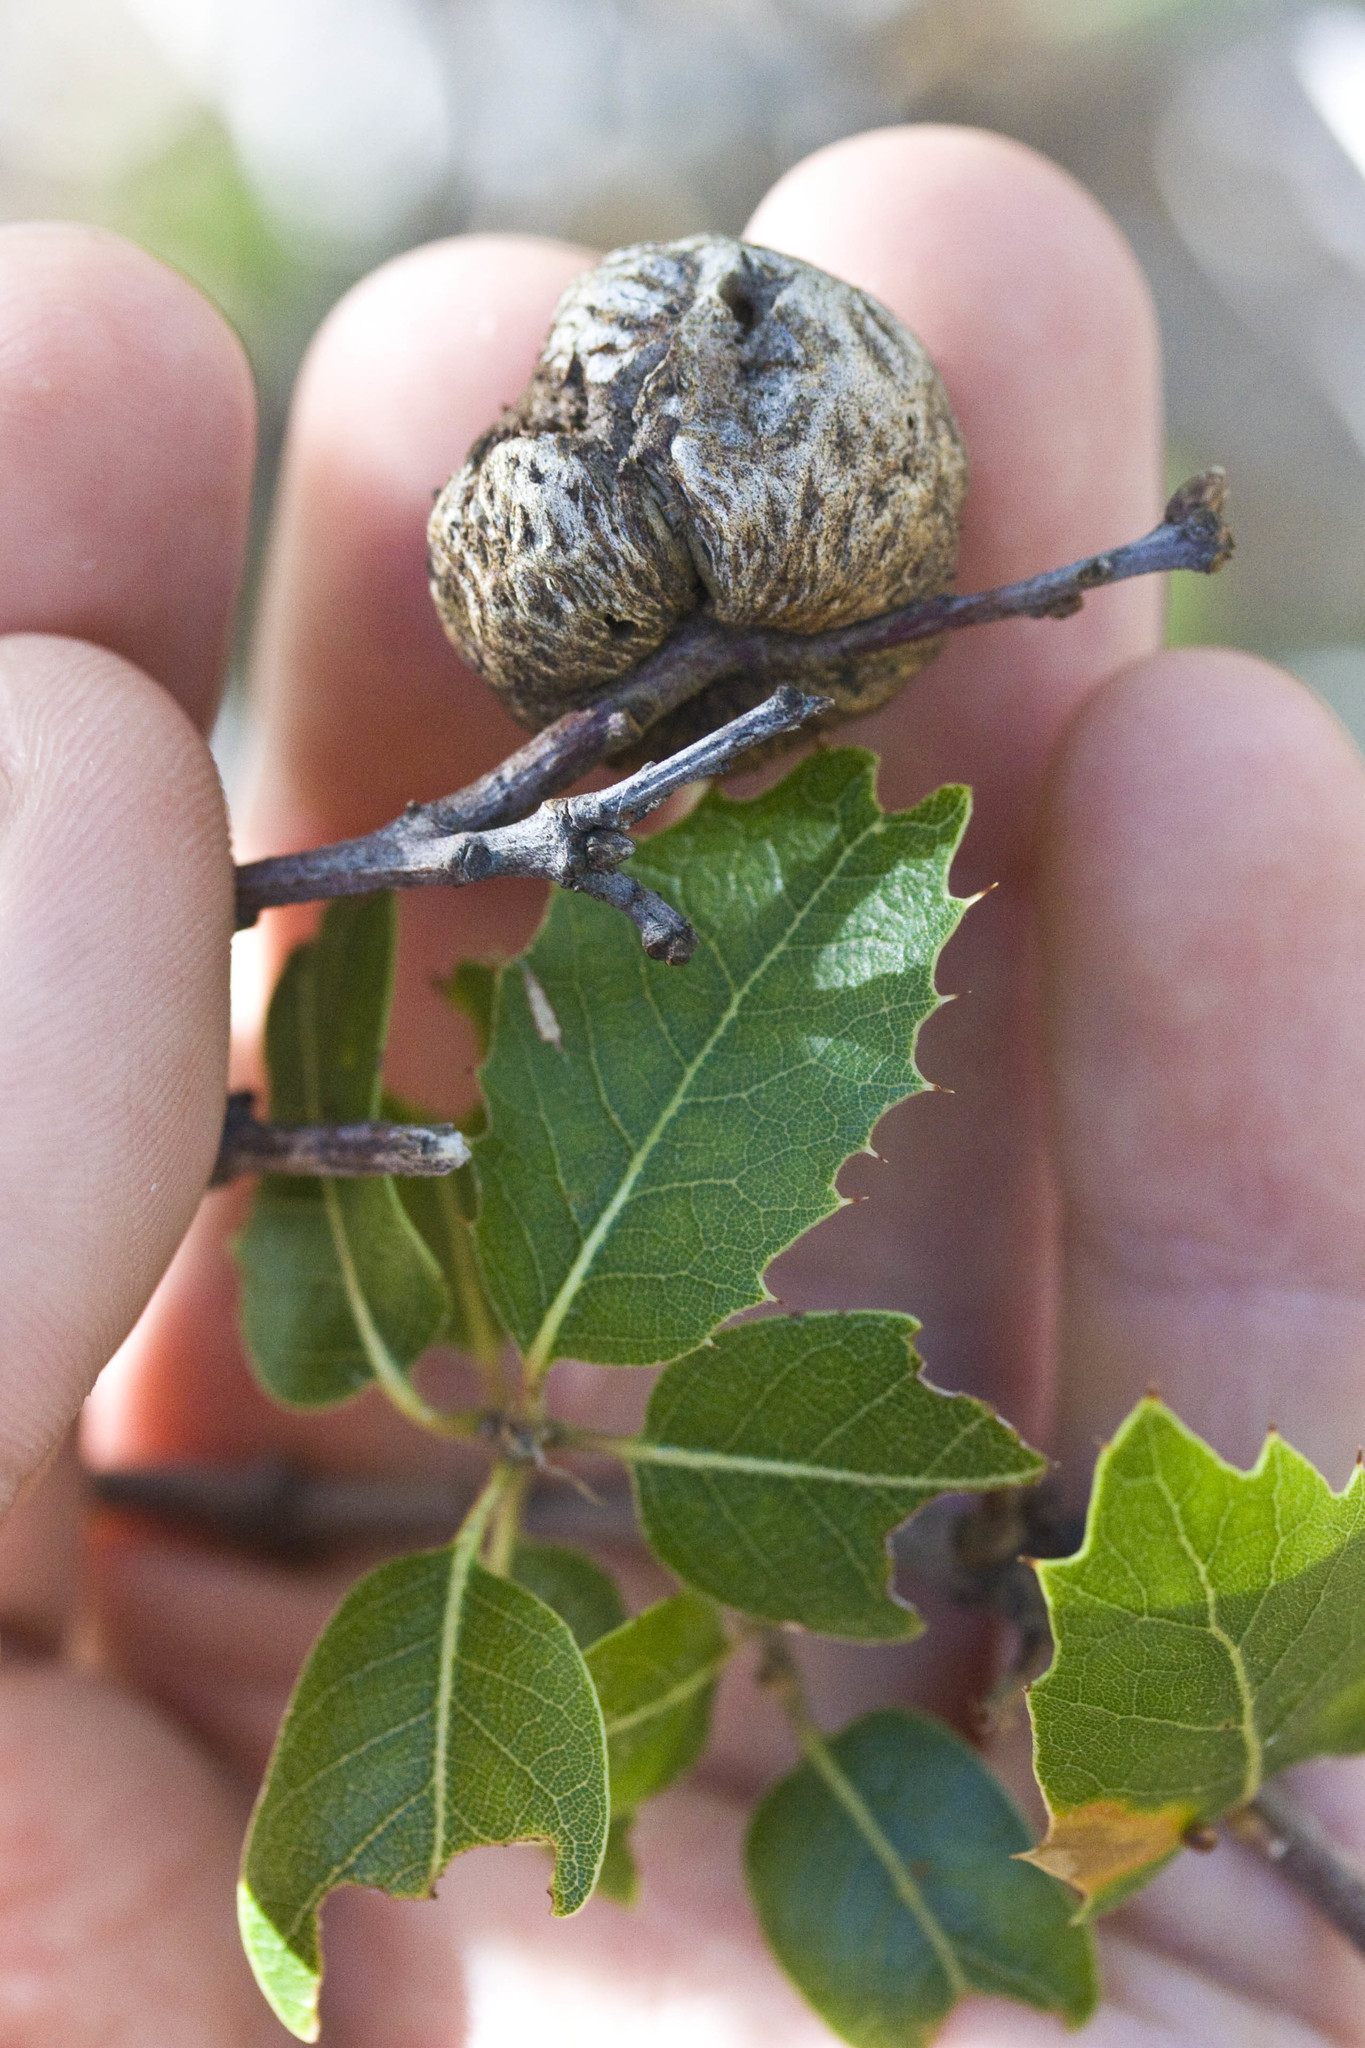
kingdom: Animalia
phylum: Arthropoda
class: Insecta
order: Hymenoptera
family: Cynipidae
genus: Amphibolips
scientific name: Amphibolips quercuspomiformis
